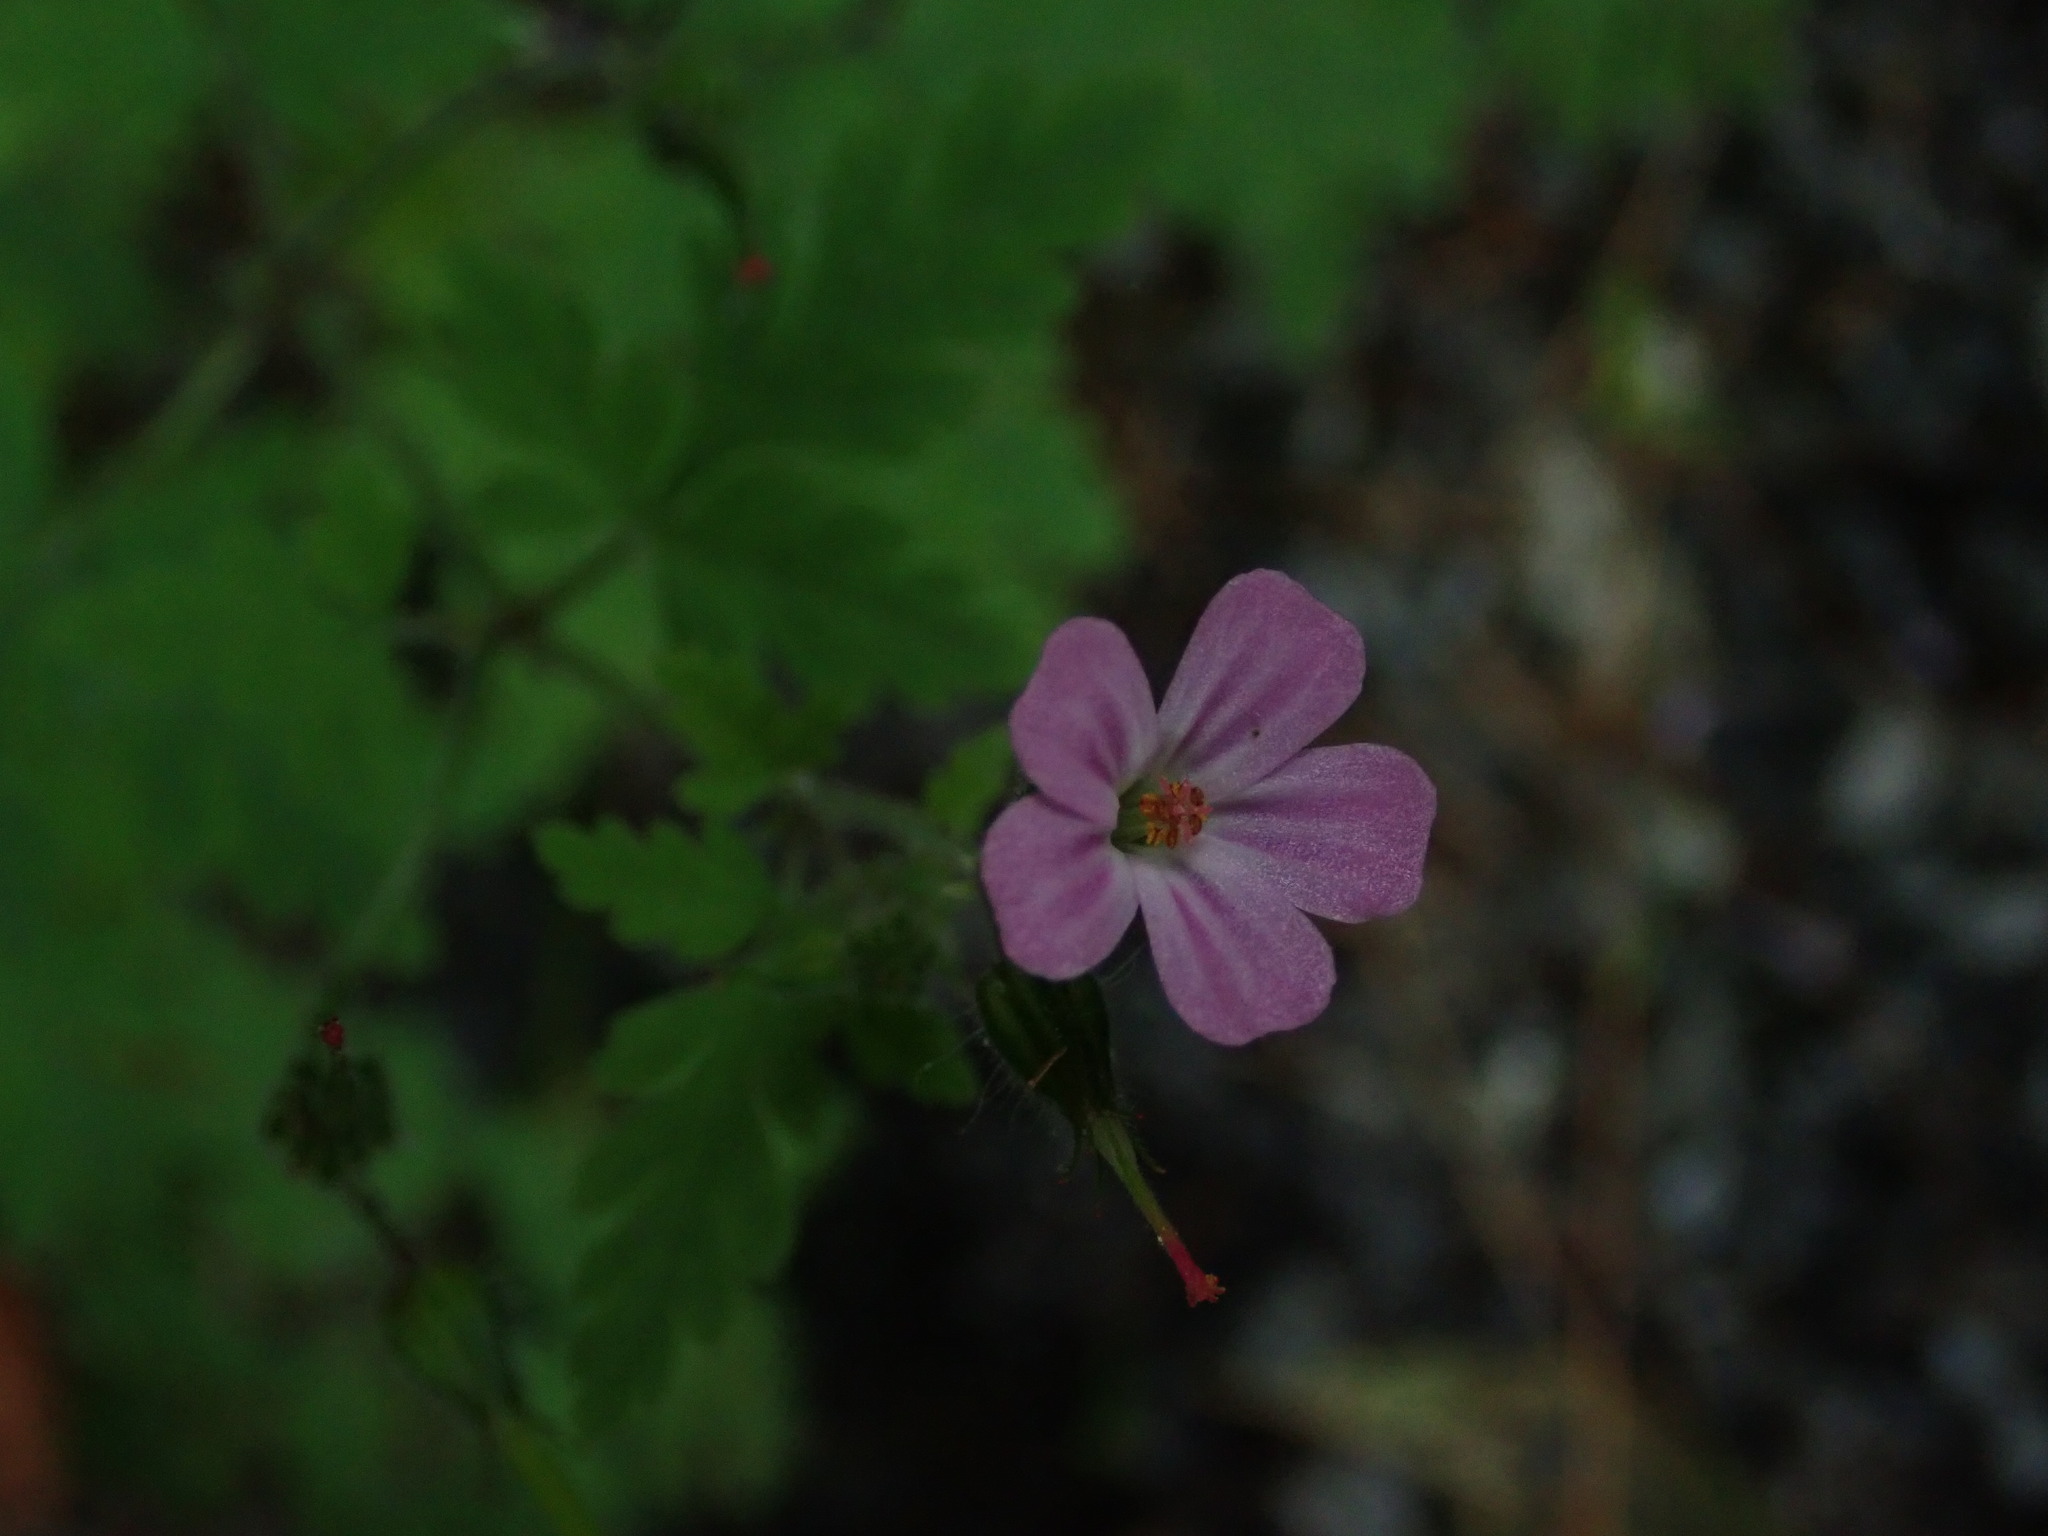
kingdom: Plantae
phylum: Tracheophyta
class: Magnoliopsida
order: Geraniales
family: Geraniaceae
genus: Geranium
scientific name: Geranium robertianum
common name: Herb-robert
